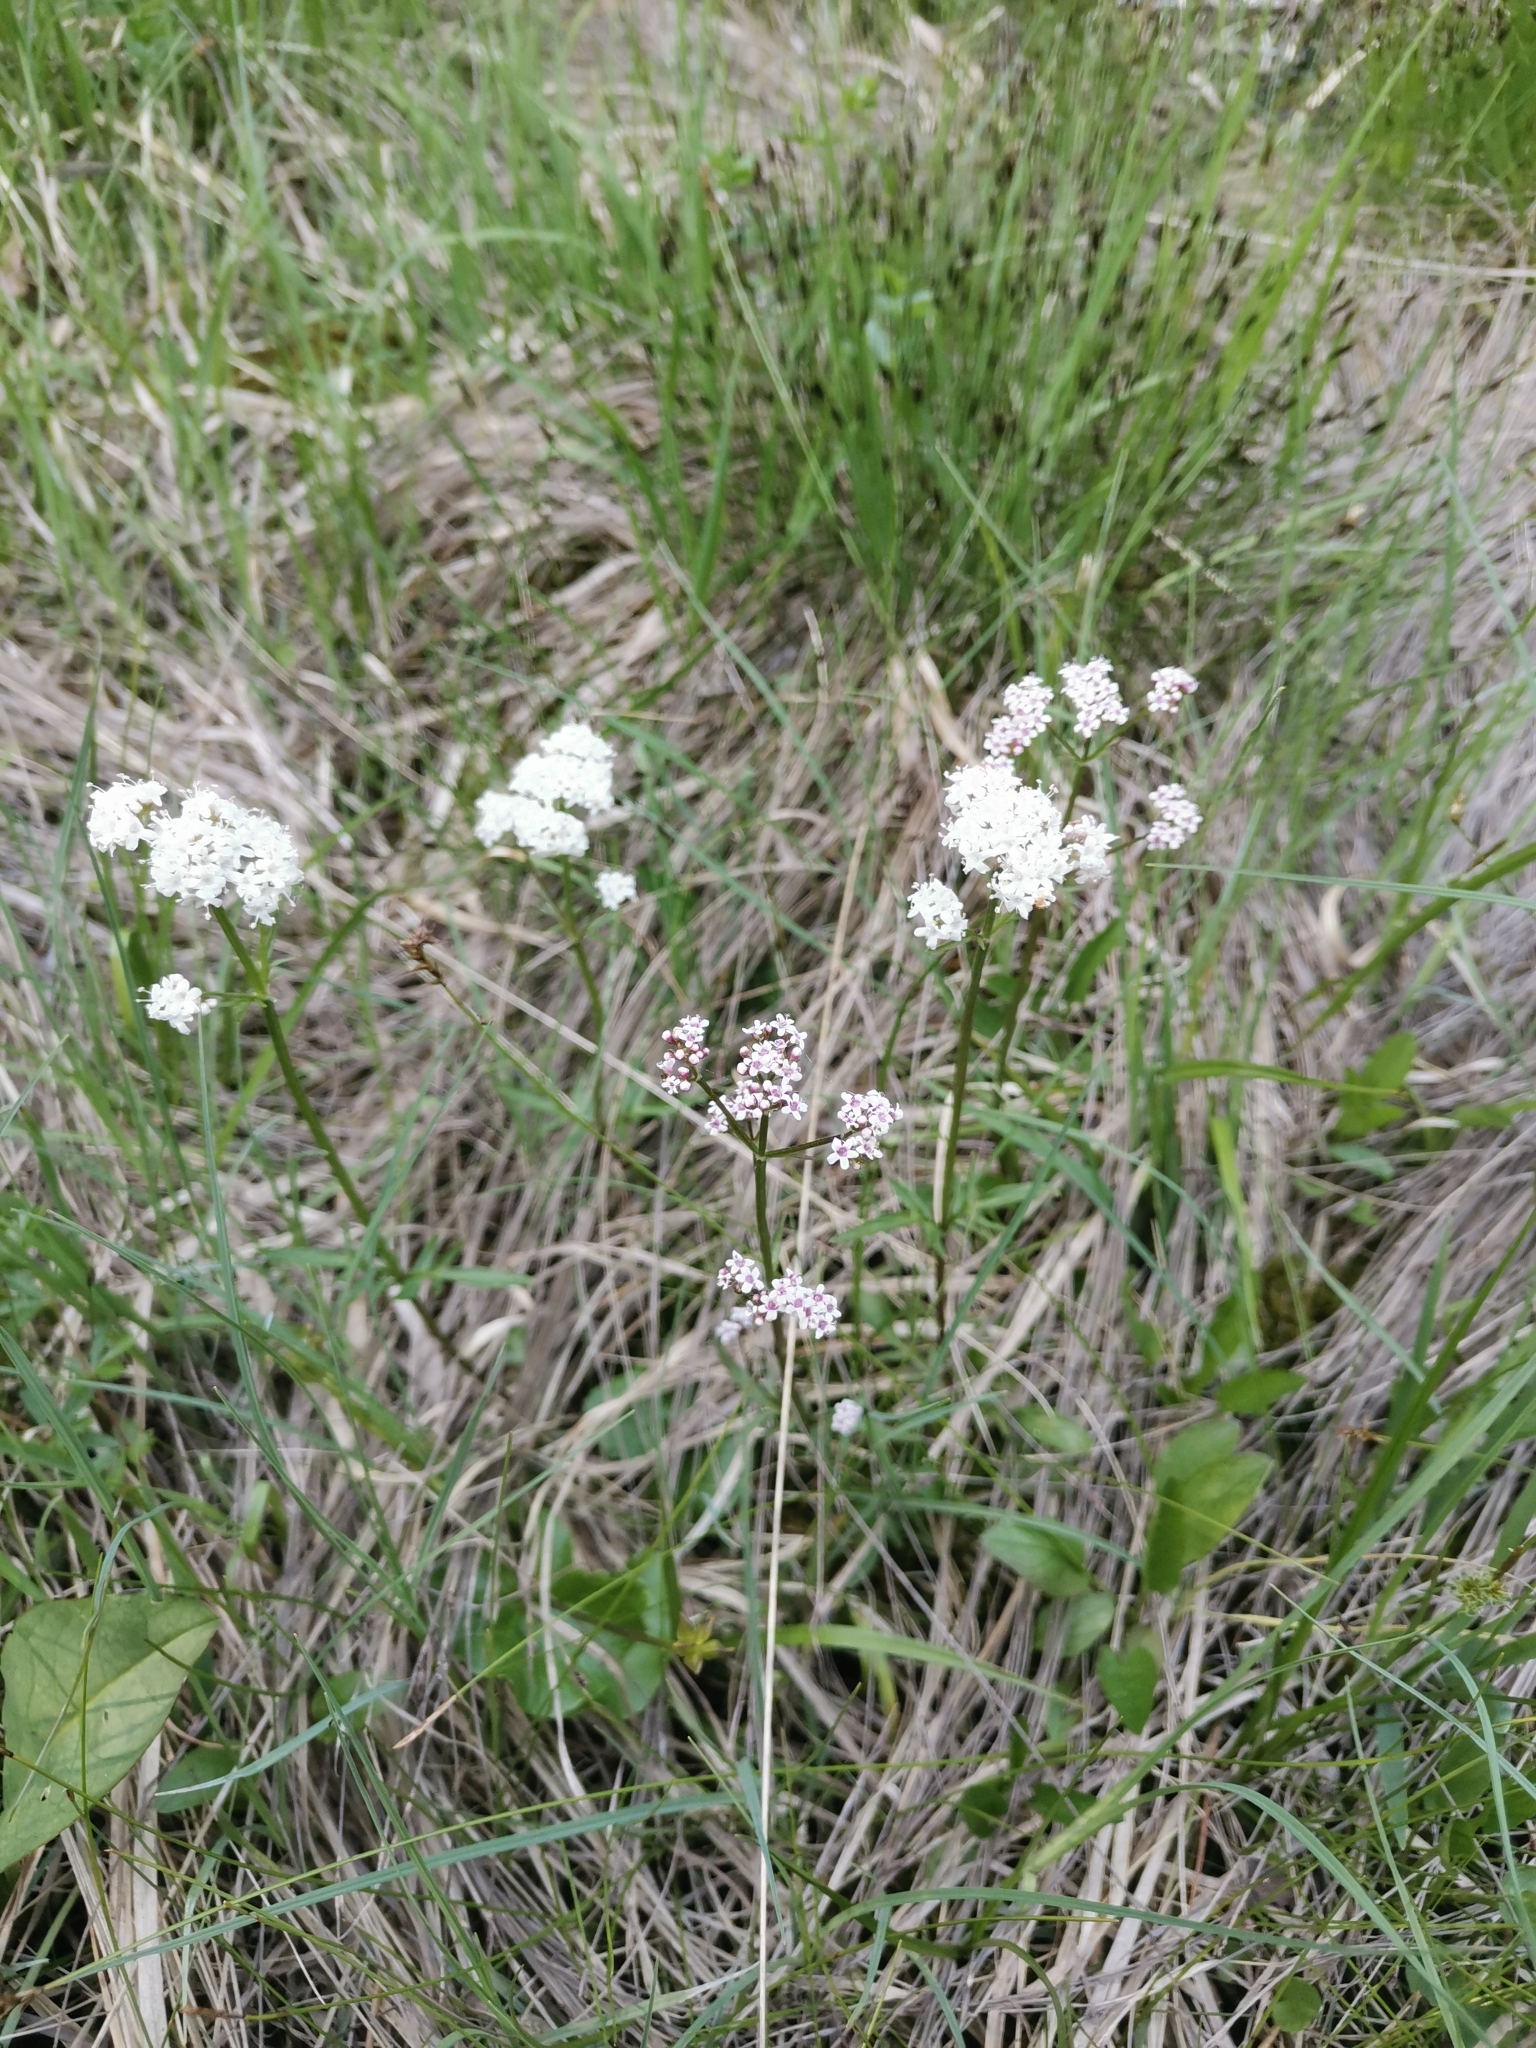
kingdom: Plantae
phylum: Tracheophyta
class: Magnoliopsida
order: Dipsacales
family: Caprifoliaceae
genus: Valeriana
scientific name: Valeriana dioica
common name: Marsh valerian
